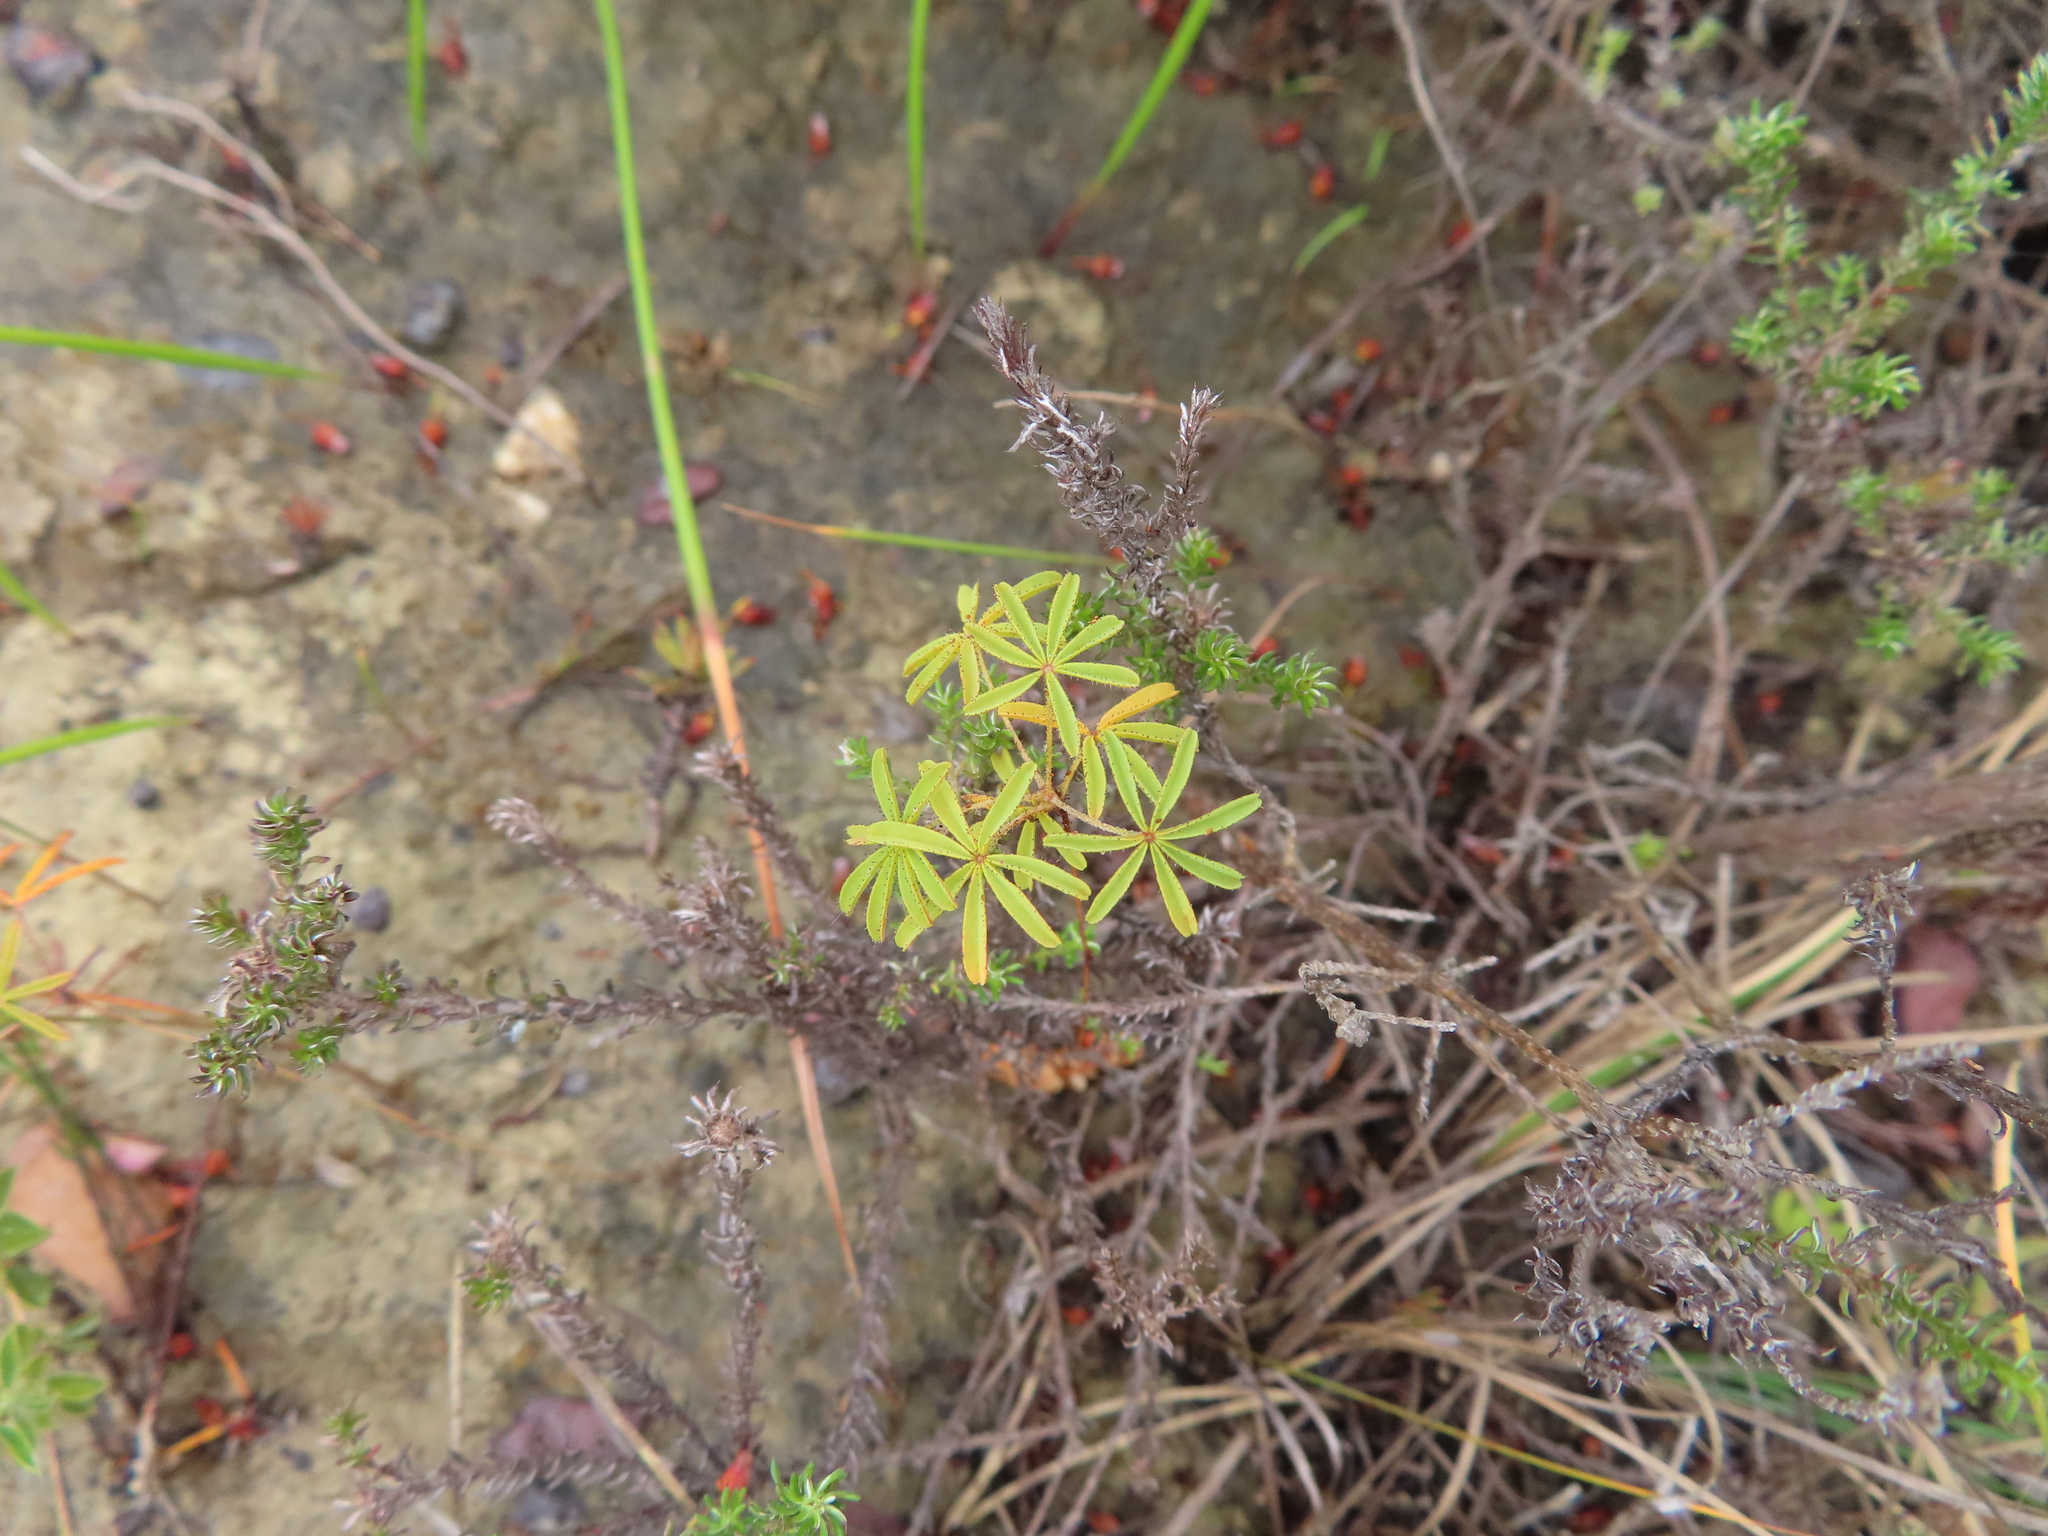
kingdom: Plantae
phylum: Tracheophyta
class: Magnoliopsida
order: Oxalidales
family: Oxalidaceae
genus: Oxalis
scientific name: Oxalis engleriana
